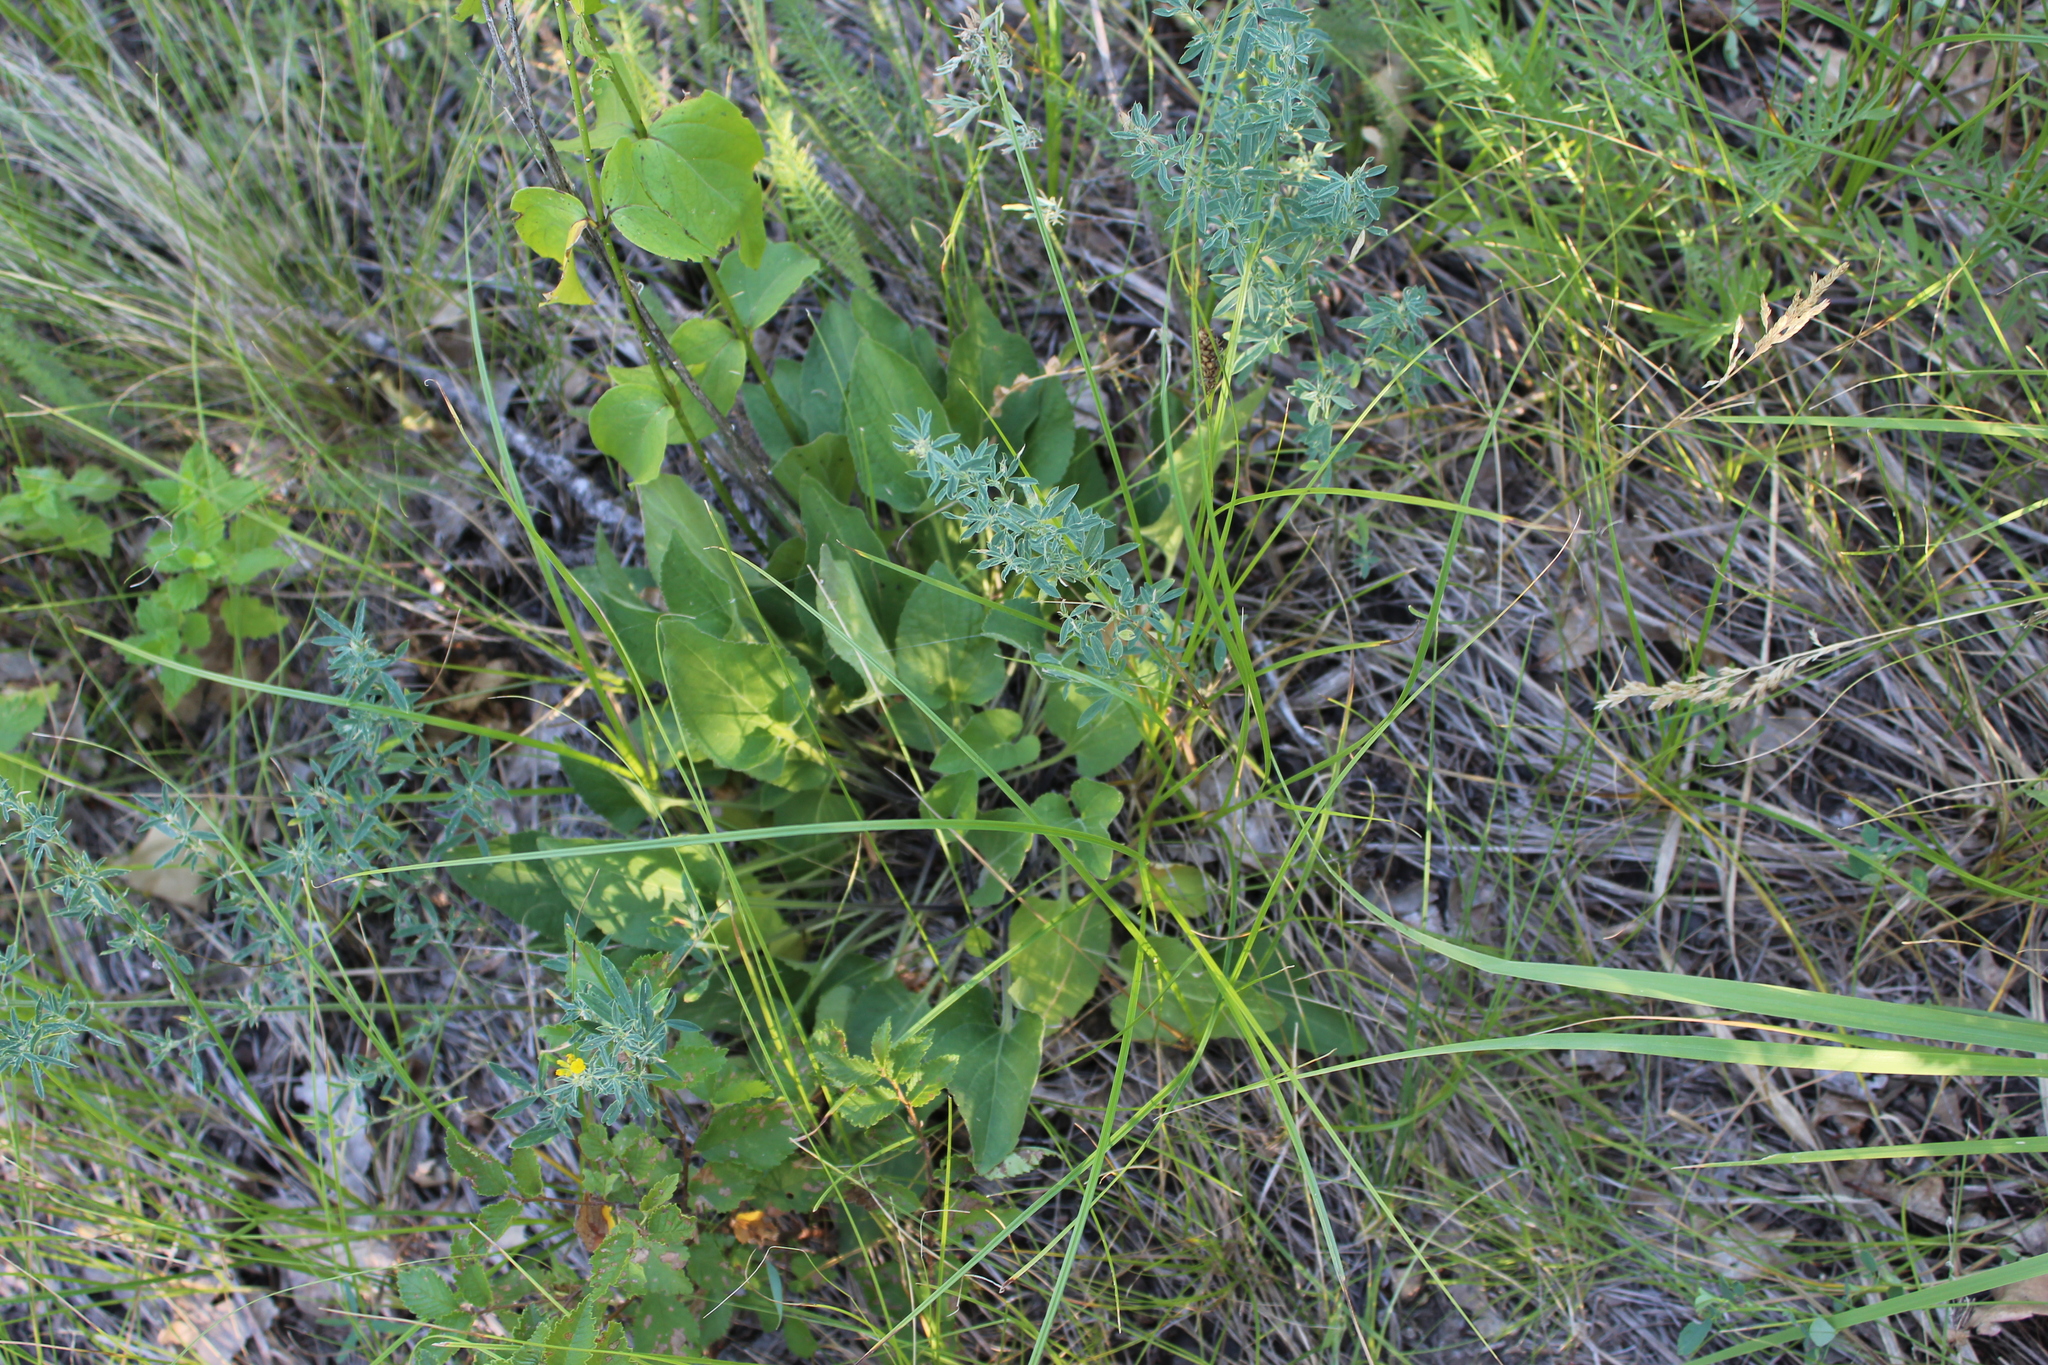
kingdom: Plantae
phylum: Tracheophyta
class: Magnoliopsida
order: Malpighiales
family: Violaceae
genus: Viola
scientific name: Viola ambigua
